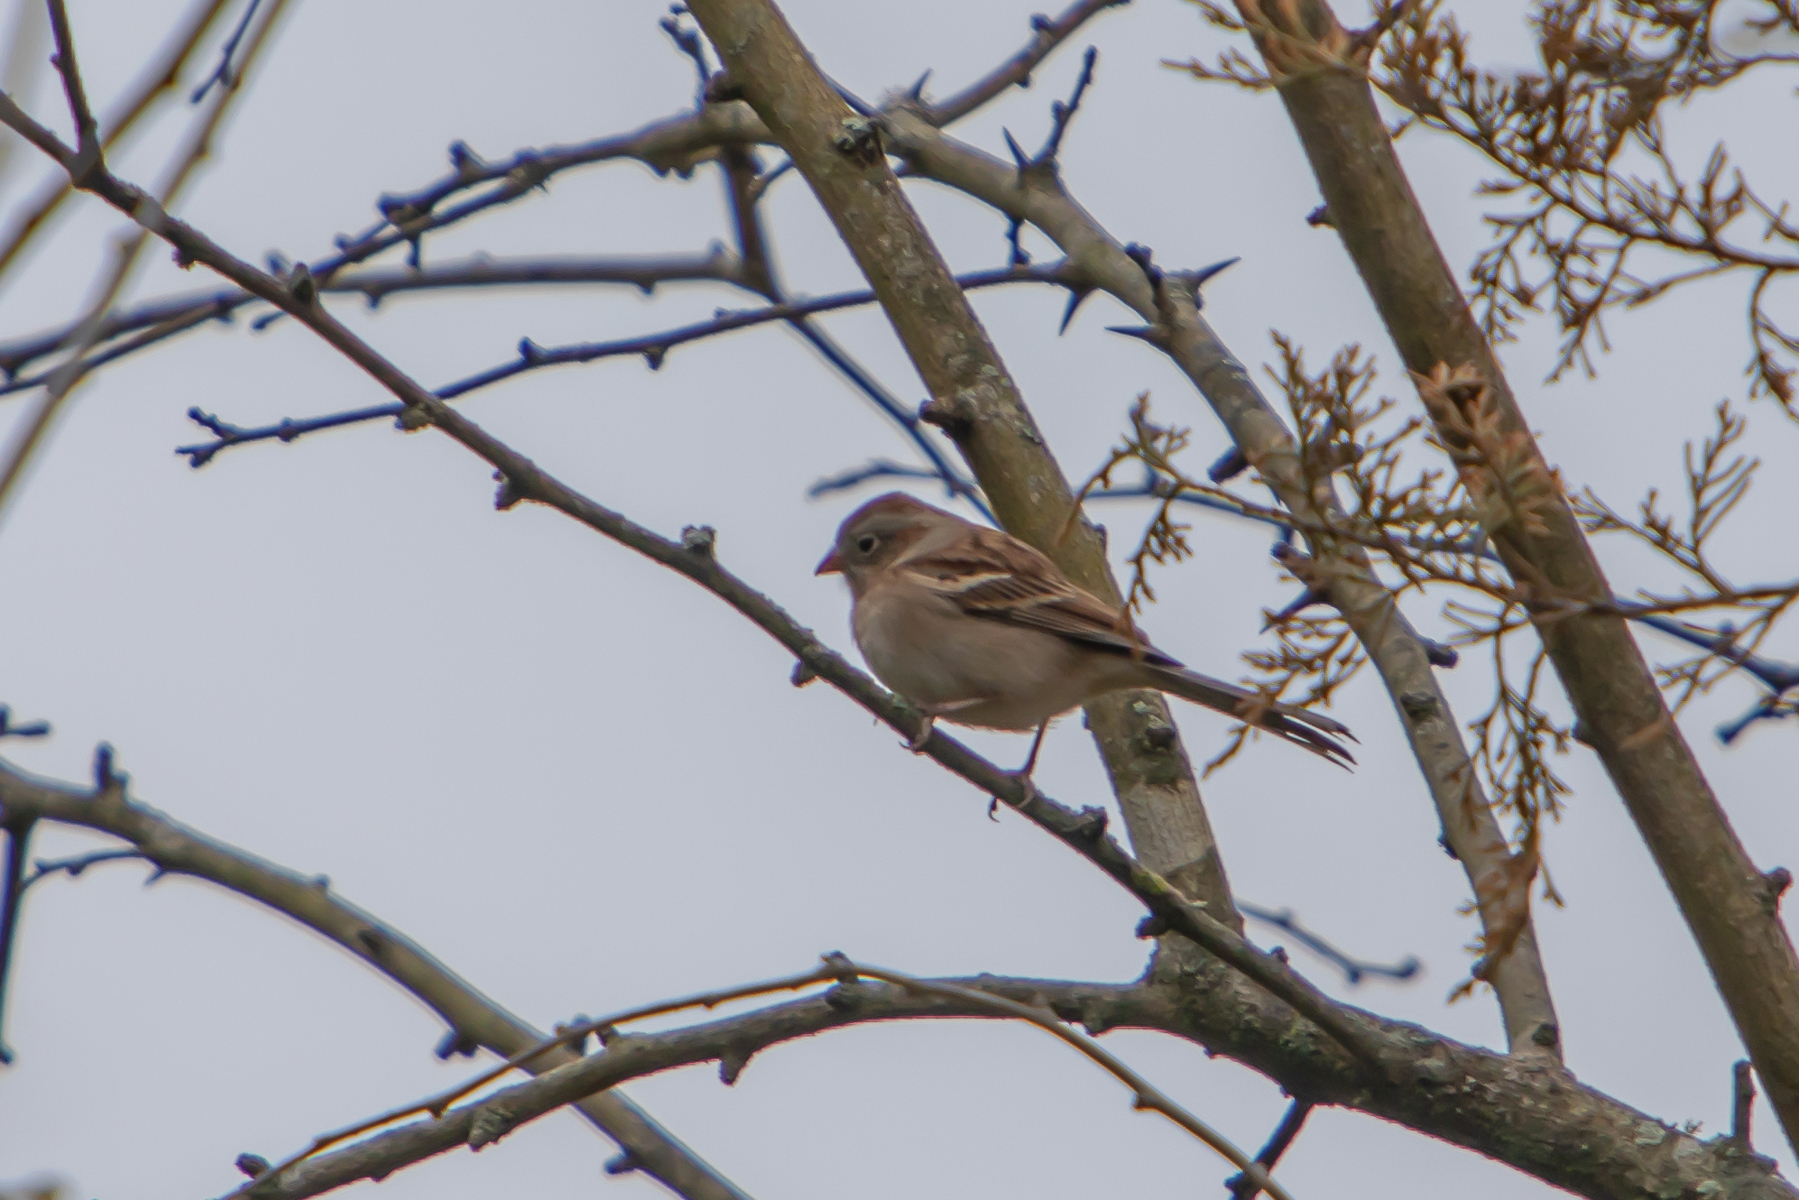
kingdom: Animalia
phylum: Chordata
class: Aves
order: Passeriformes
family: Passerellidae
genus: Spizella
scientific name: Spizella pusilla
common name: Field sparrow
